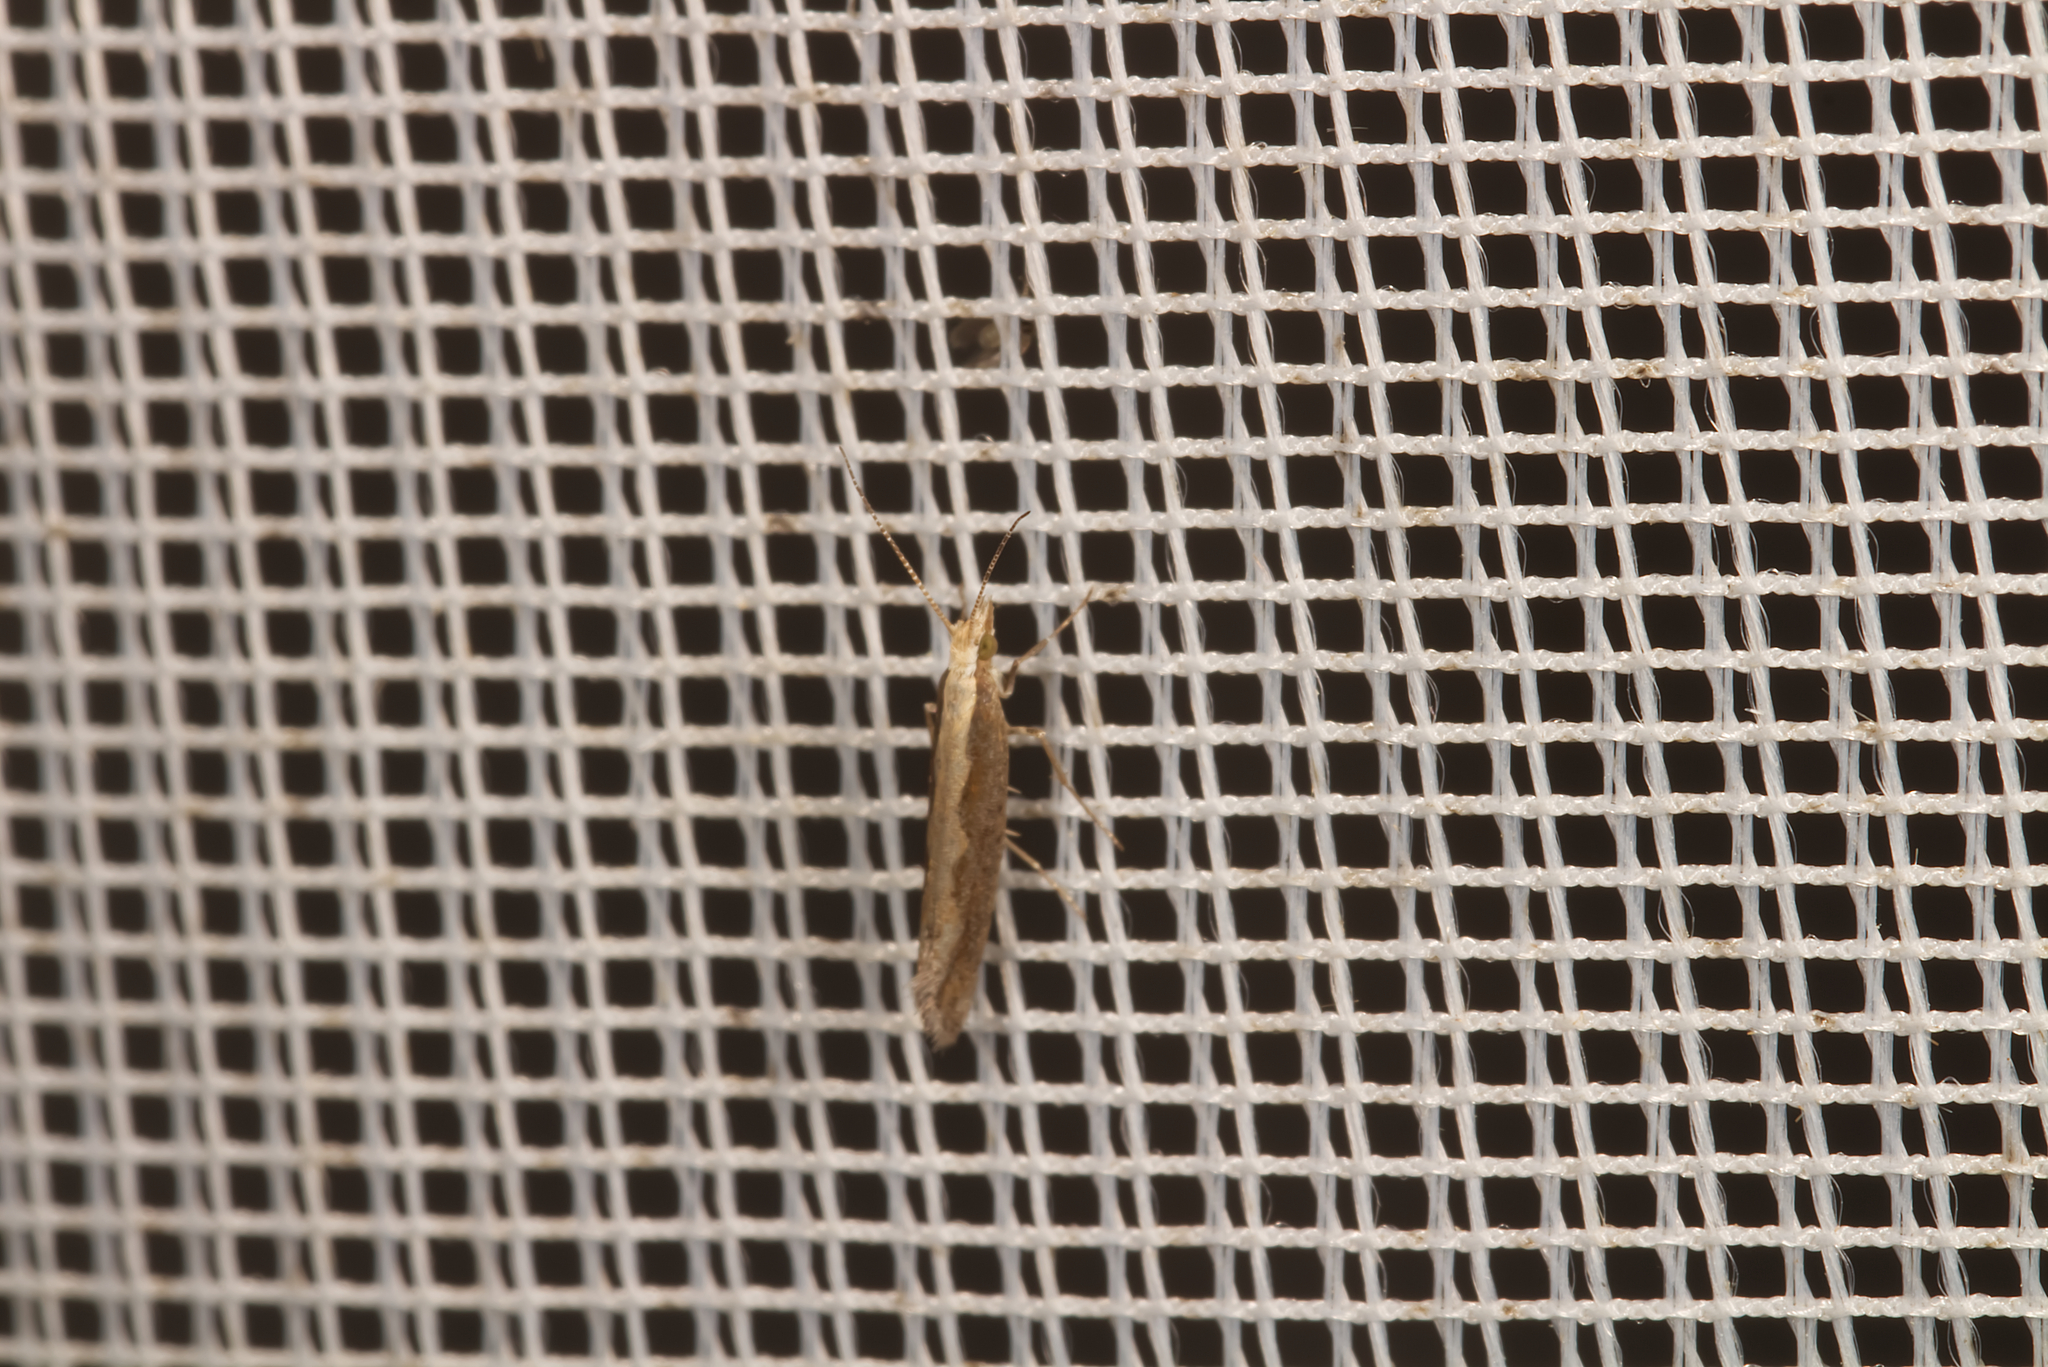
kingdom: Animalia
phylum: Arthropoda
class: Insecta
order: Lepidoptera
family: Plutellidae
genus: Plutella
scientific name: Plutella xylostella
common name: Diamond-back moth
